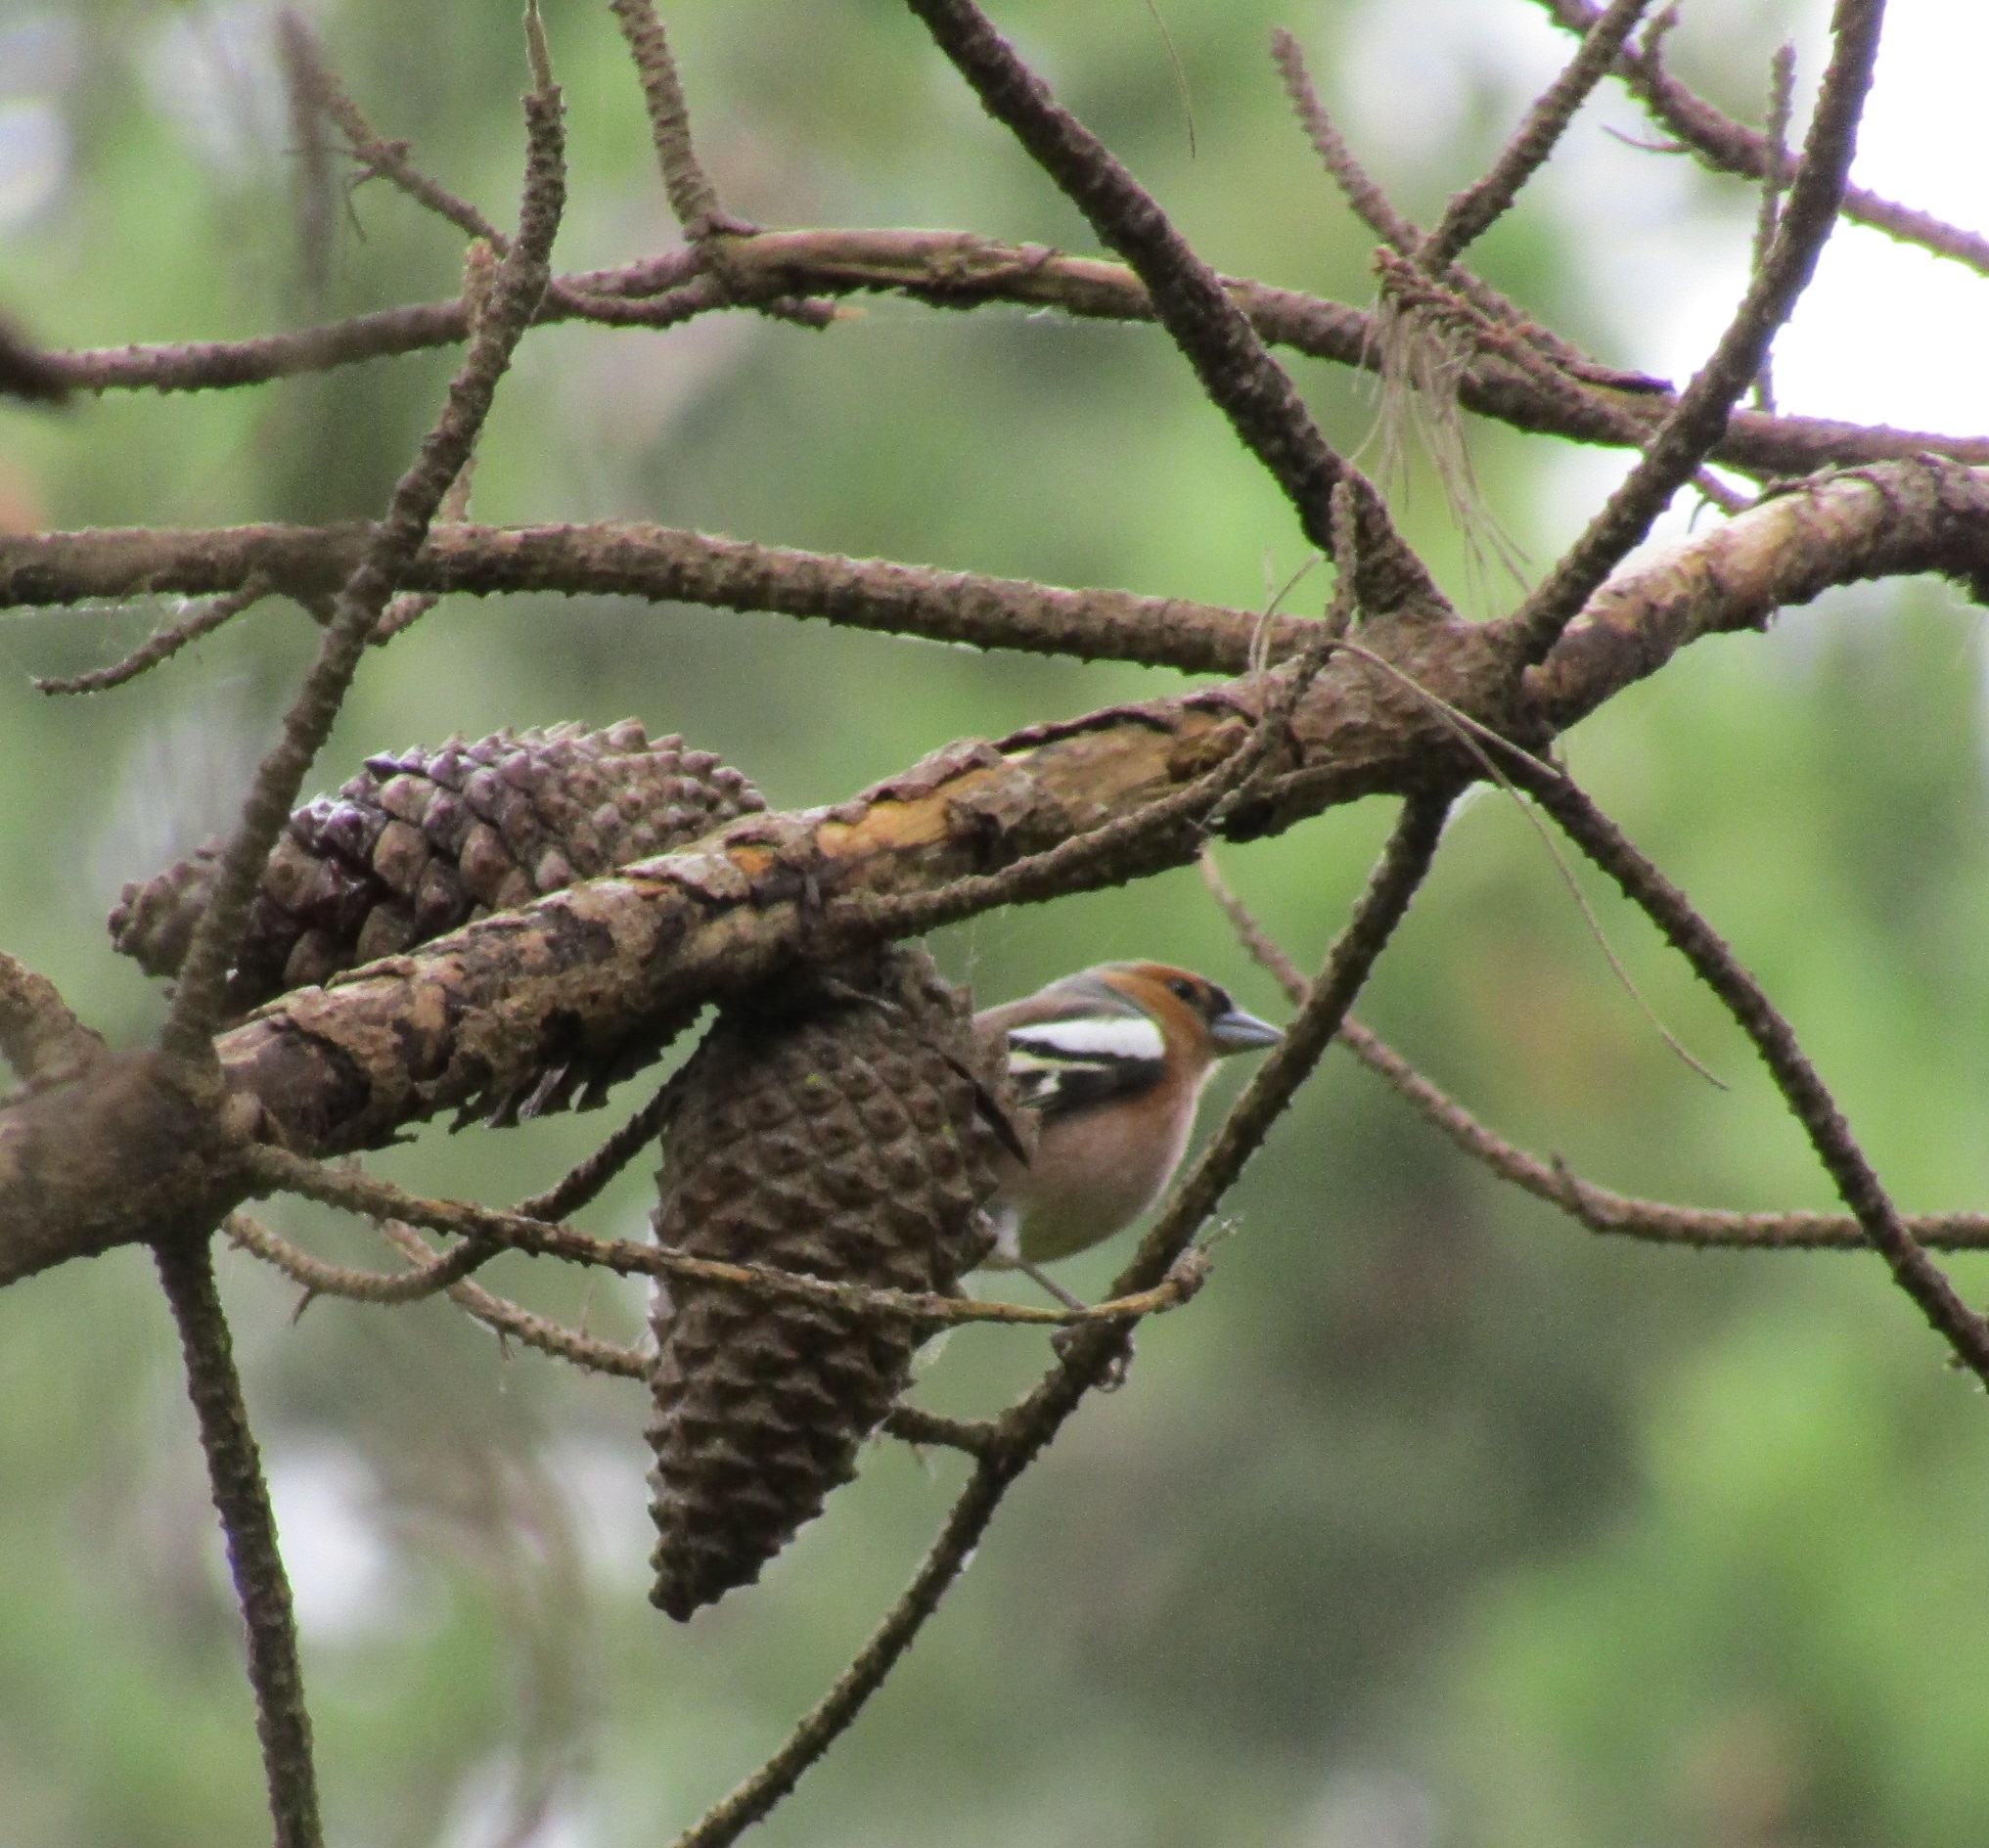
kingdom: Animalia
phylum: Chordata
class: Aves
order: Passeriformes
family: Fringillidae
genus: Fringilla
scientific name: Fringilla coelebs
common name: Common chaffinch
